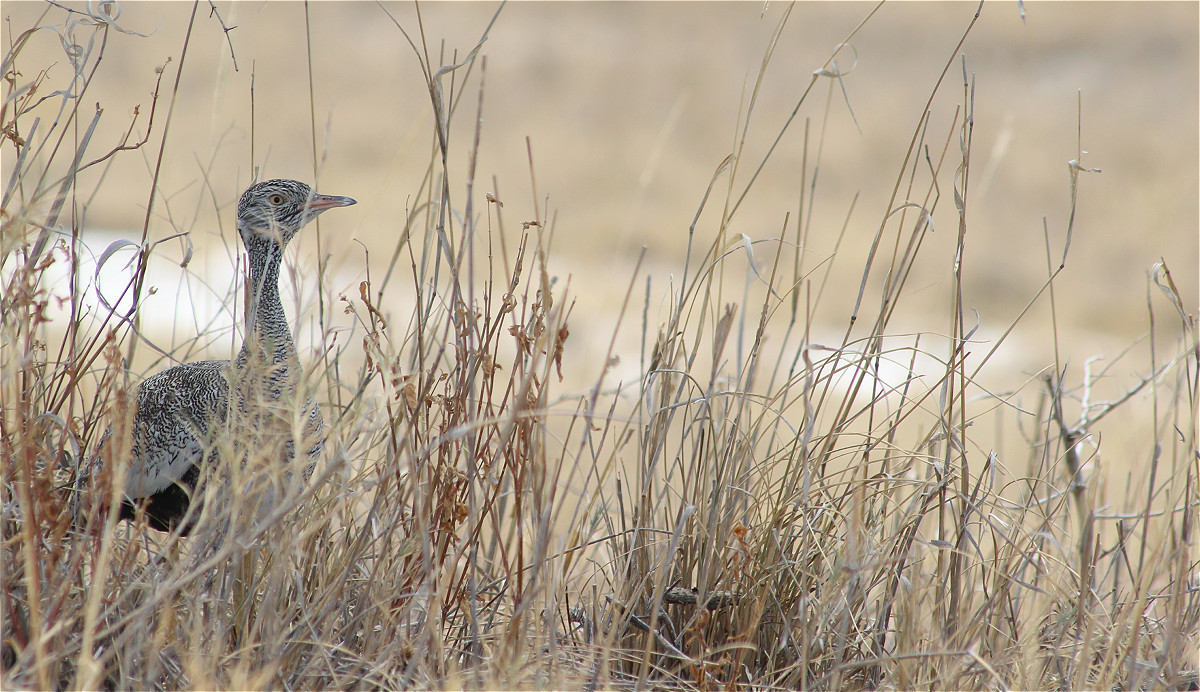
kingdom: Animalia
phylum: Chordata
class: Aves
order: Otidiformes
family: Otididae
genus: Afrotis
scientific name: Afrotis afraoides
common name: Northern black korhaan
